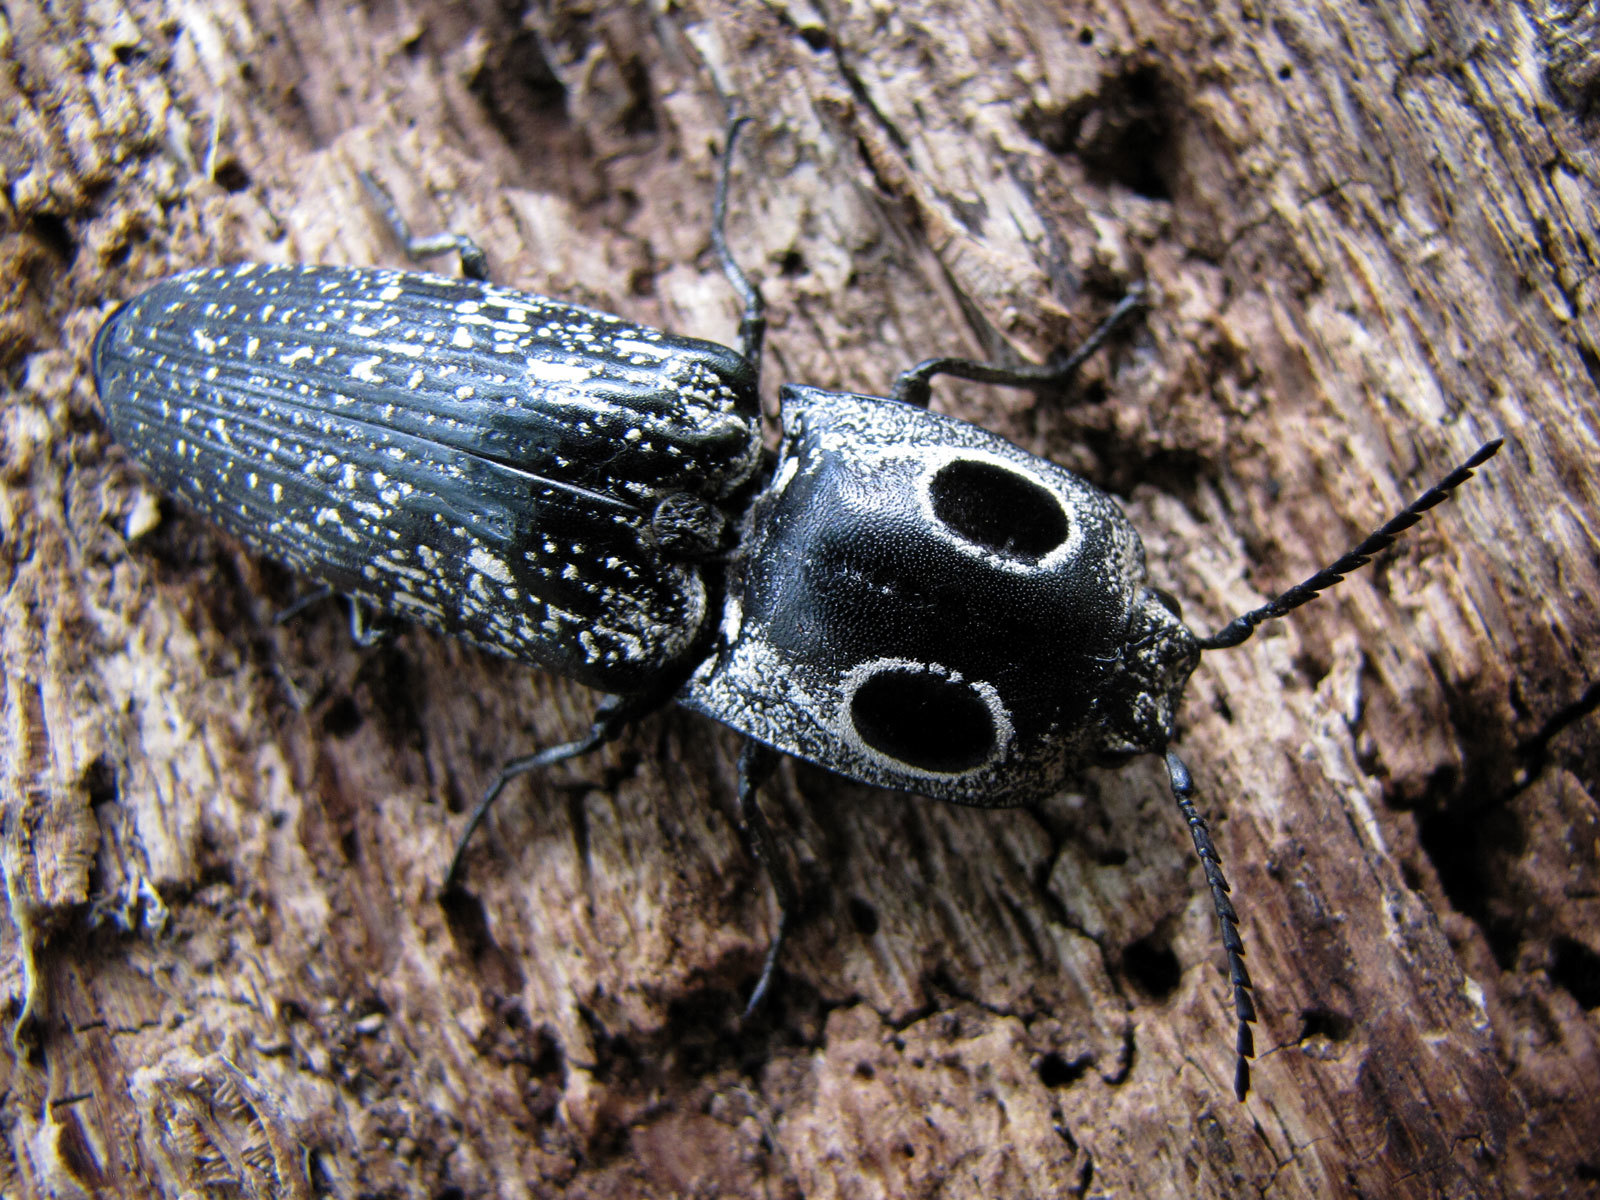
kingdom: Animalia
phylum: Arthropoda
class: Insecta
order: Coleoptera
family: Elateridae
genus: Alaus
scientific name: Alaus oculatus
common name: Eastern eyed click beetle
